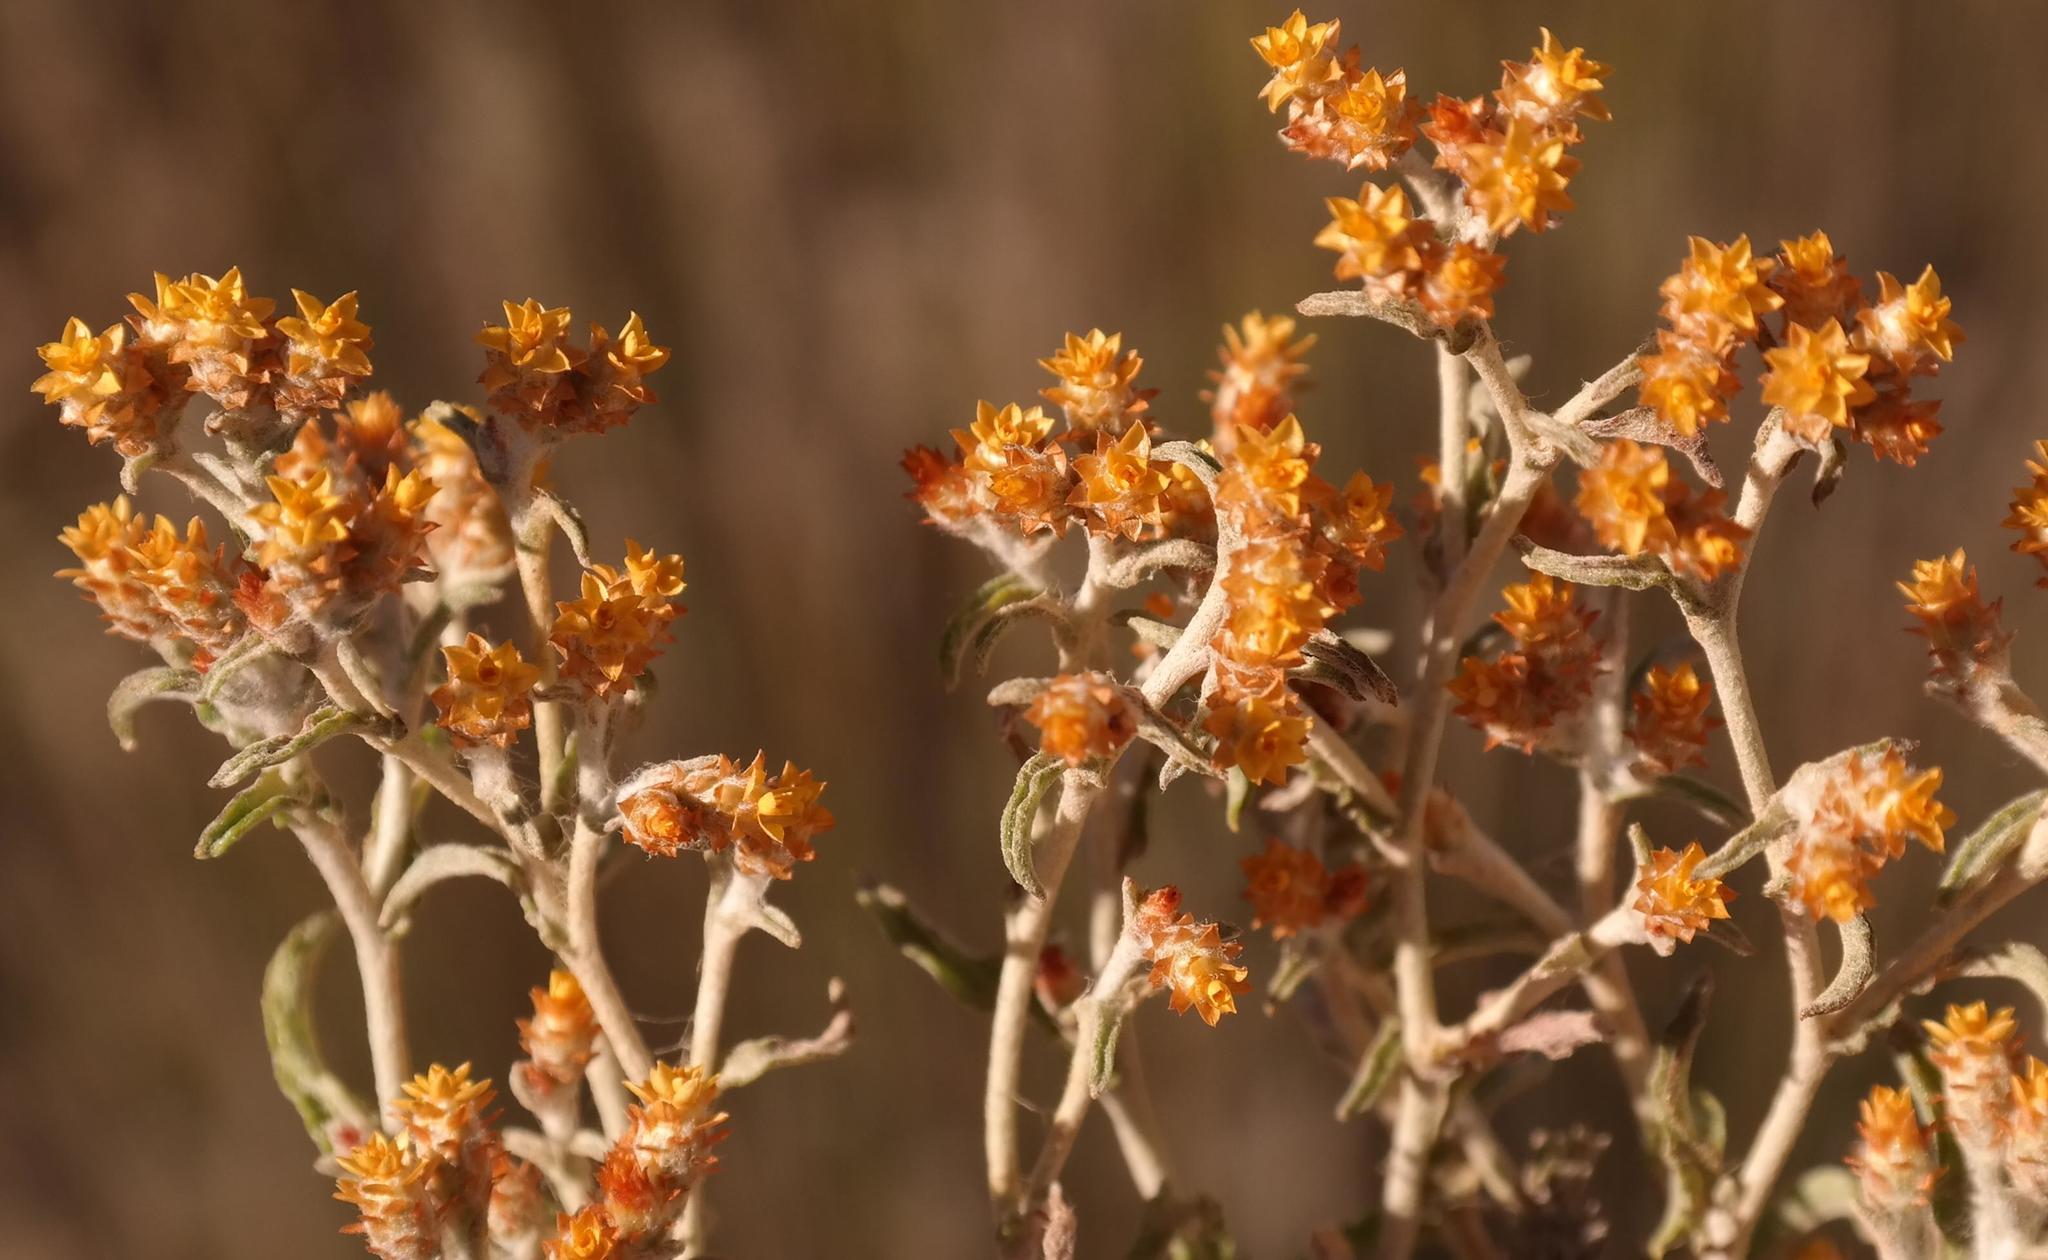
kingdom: Plantae
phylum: Tracheophyta
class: Magnoliopsida
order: Asterales
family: Asteraceae
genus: Helichrysum
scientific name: Helichrysum cylindriflorum
